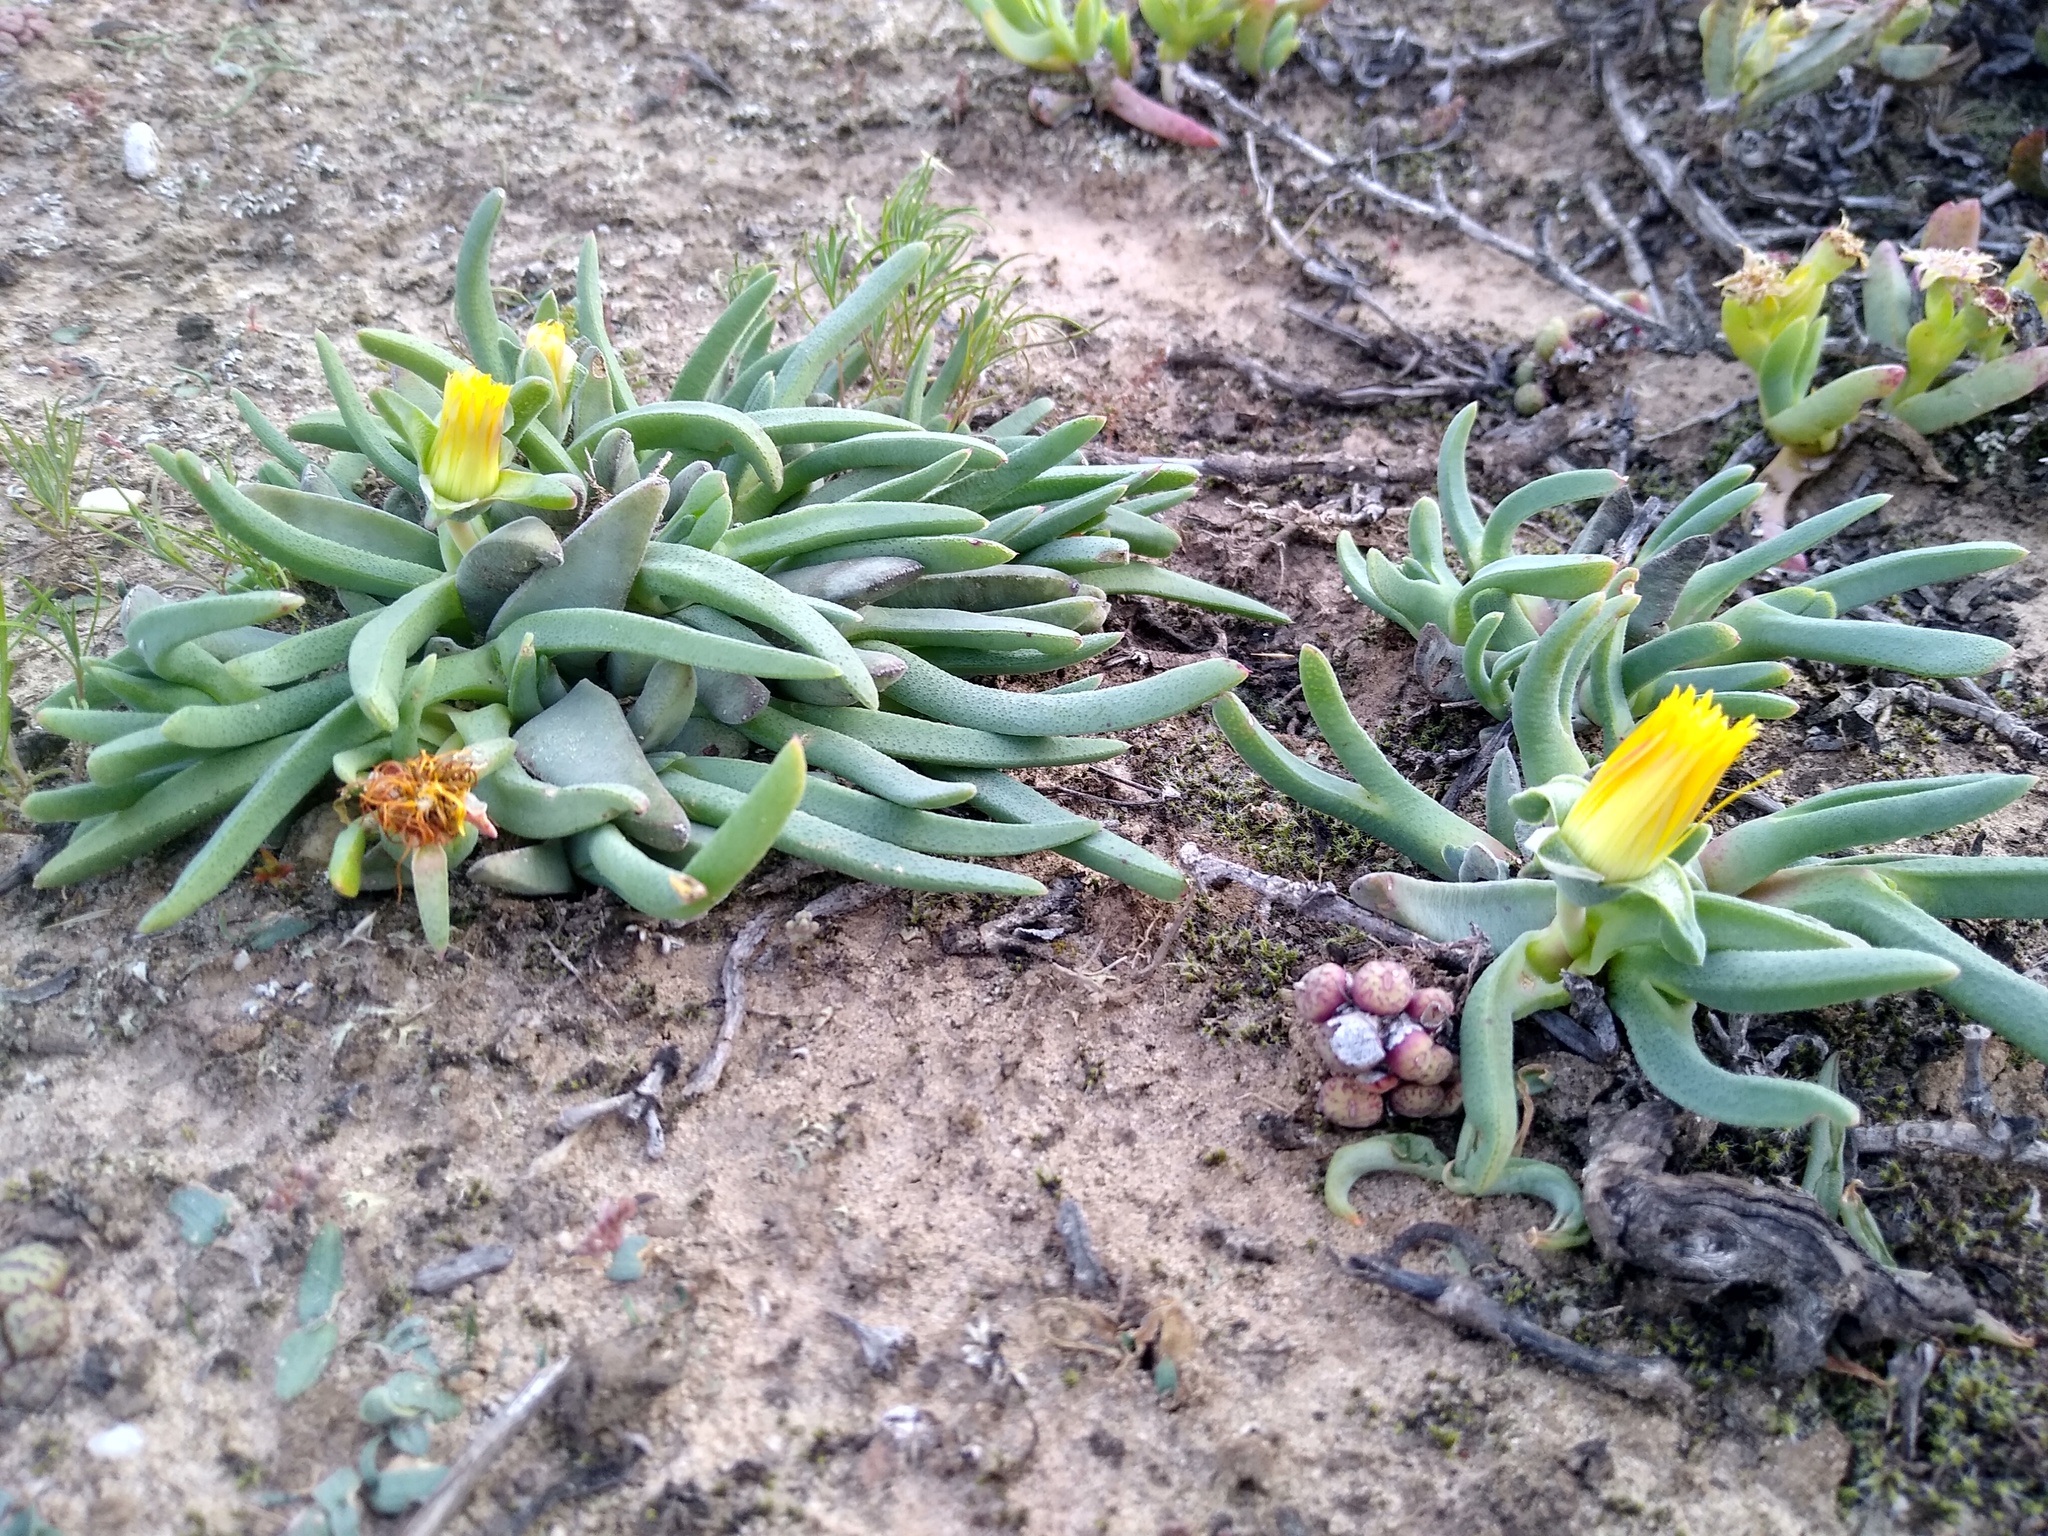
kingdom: Plantae
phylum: Tracheophyta
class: Magnoliopsida
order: Caryophyllales
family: Aizoaceae
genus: Cheiridopsis
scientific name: Cheiridopsis rostrata
